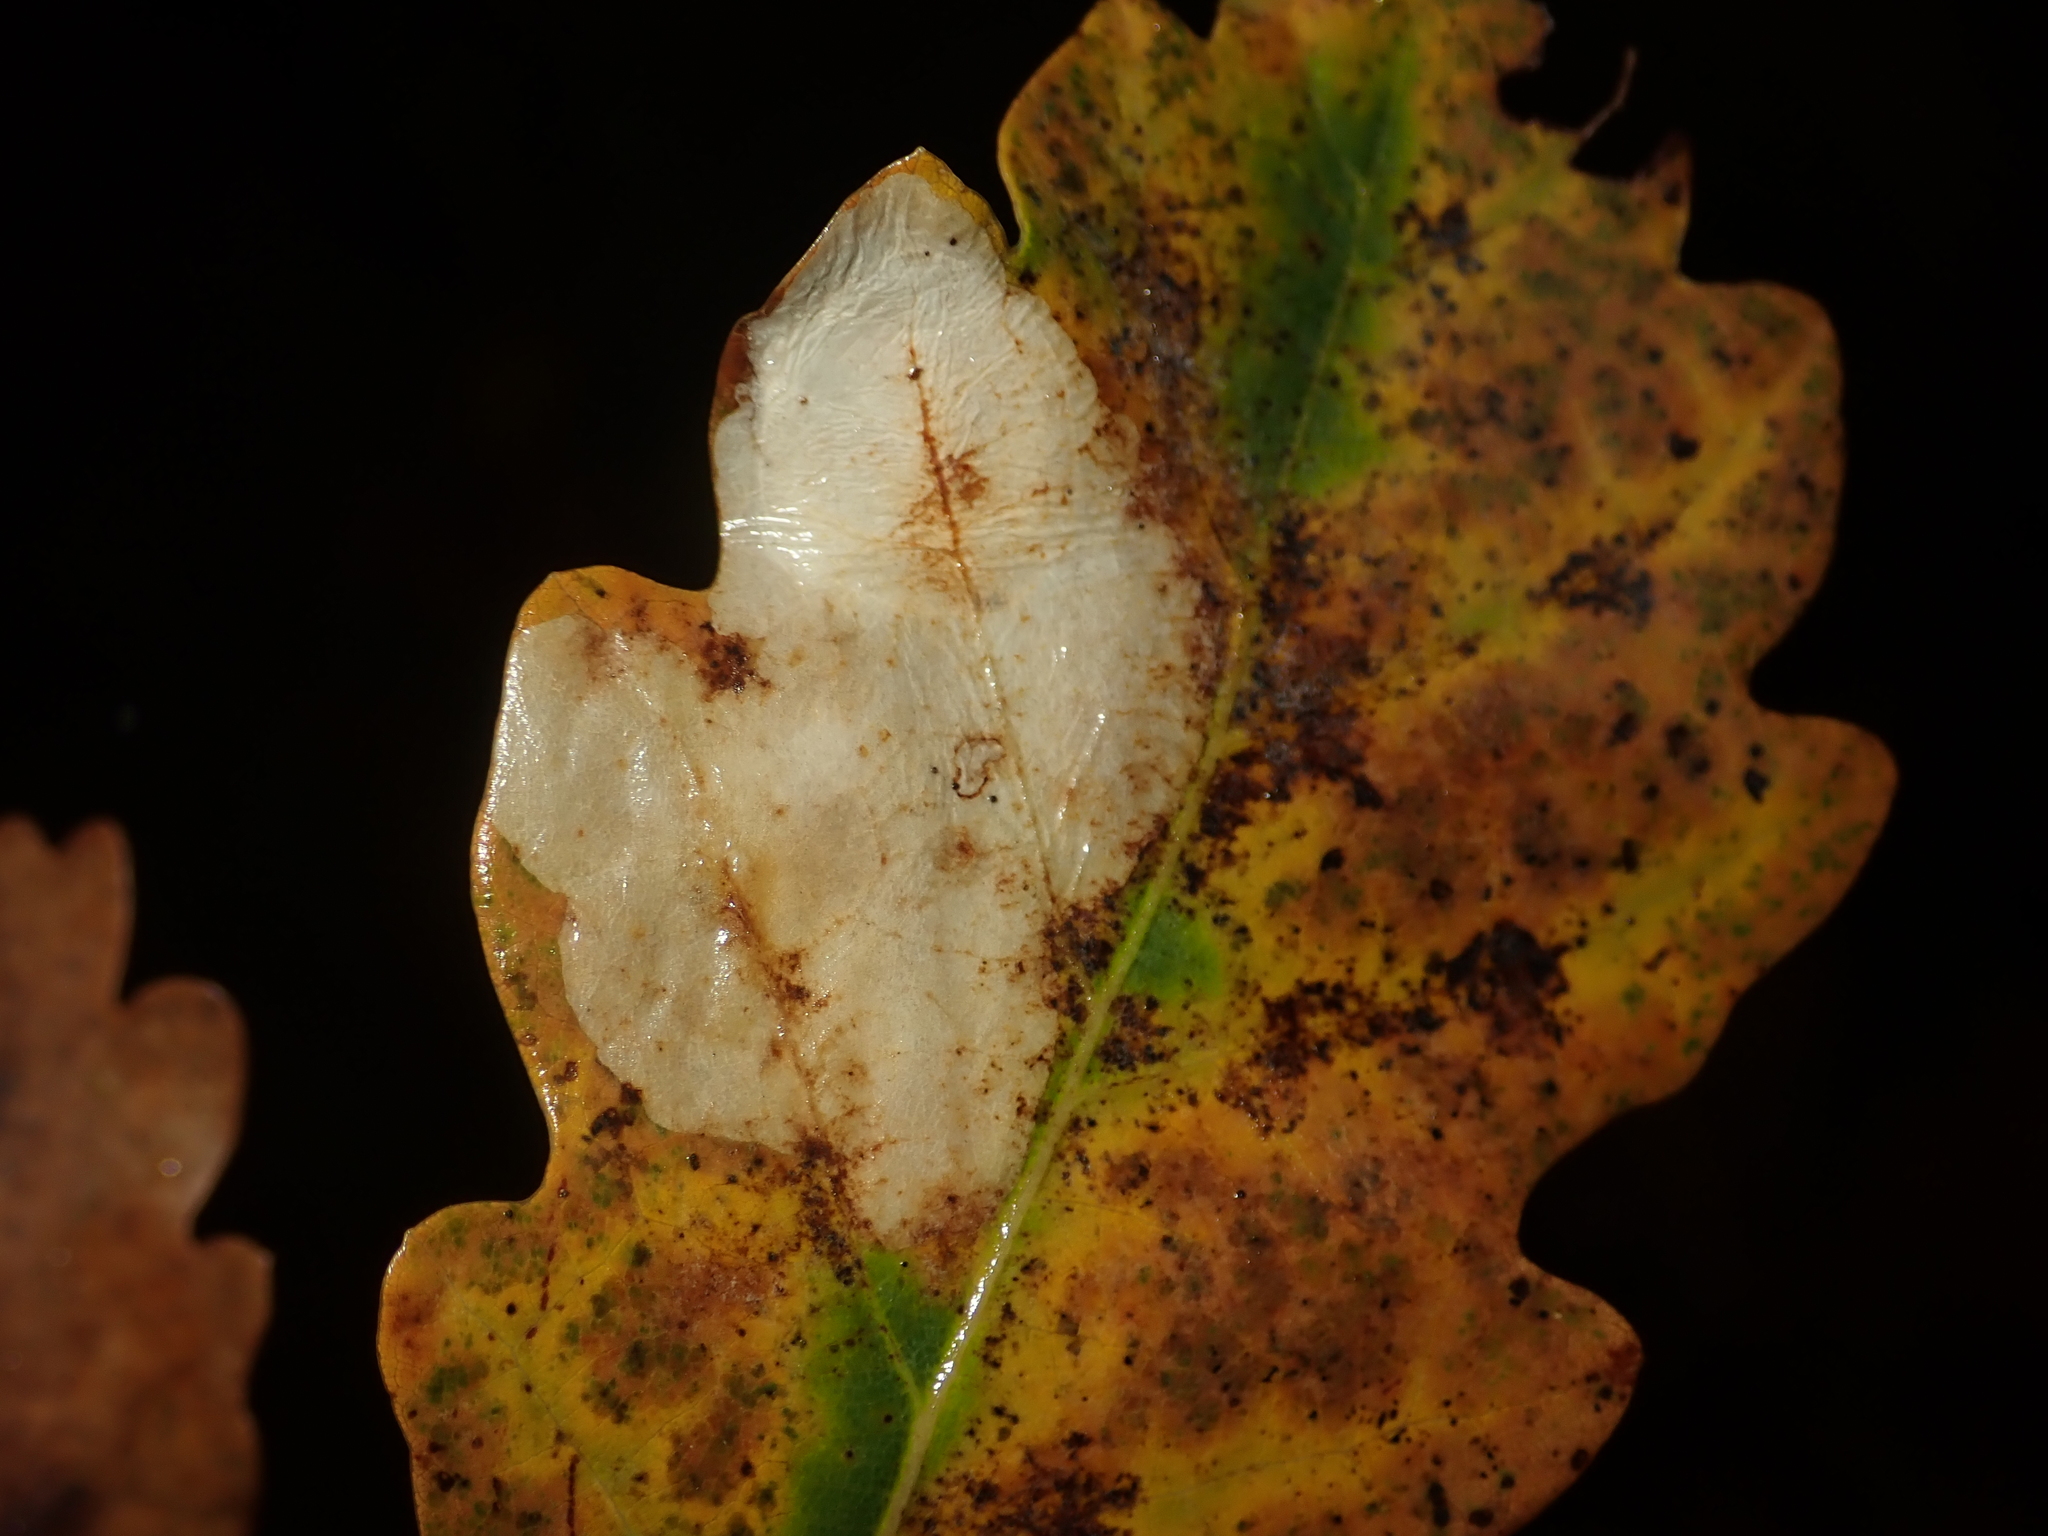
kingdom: Animalia
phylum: Arthropoda
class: Insecta
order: Lepidoptera
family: Tischeriidae
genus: Tischeria
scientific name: Tischeria ekebladella
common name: Oak carl
